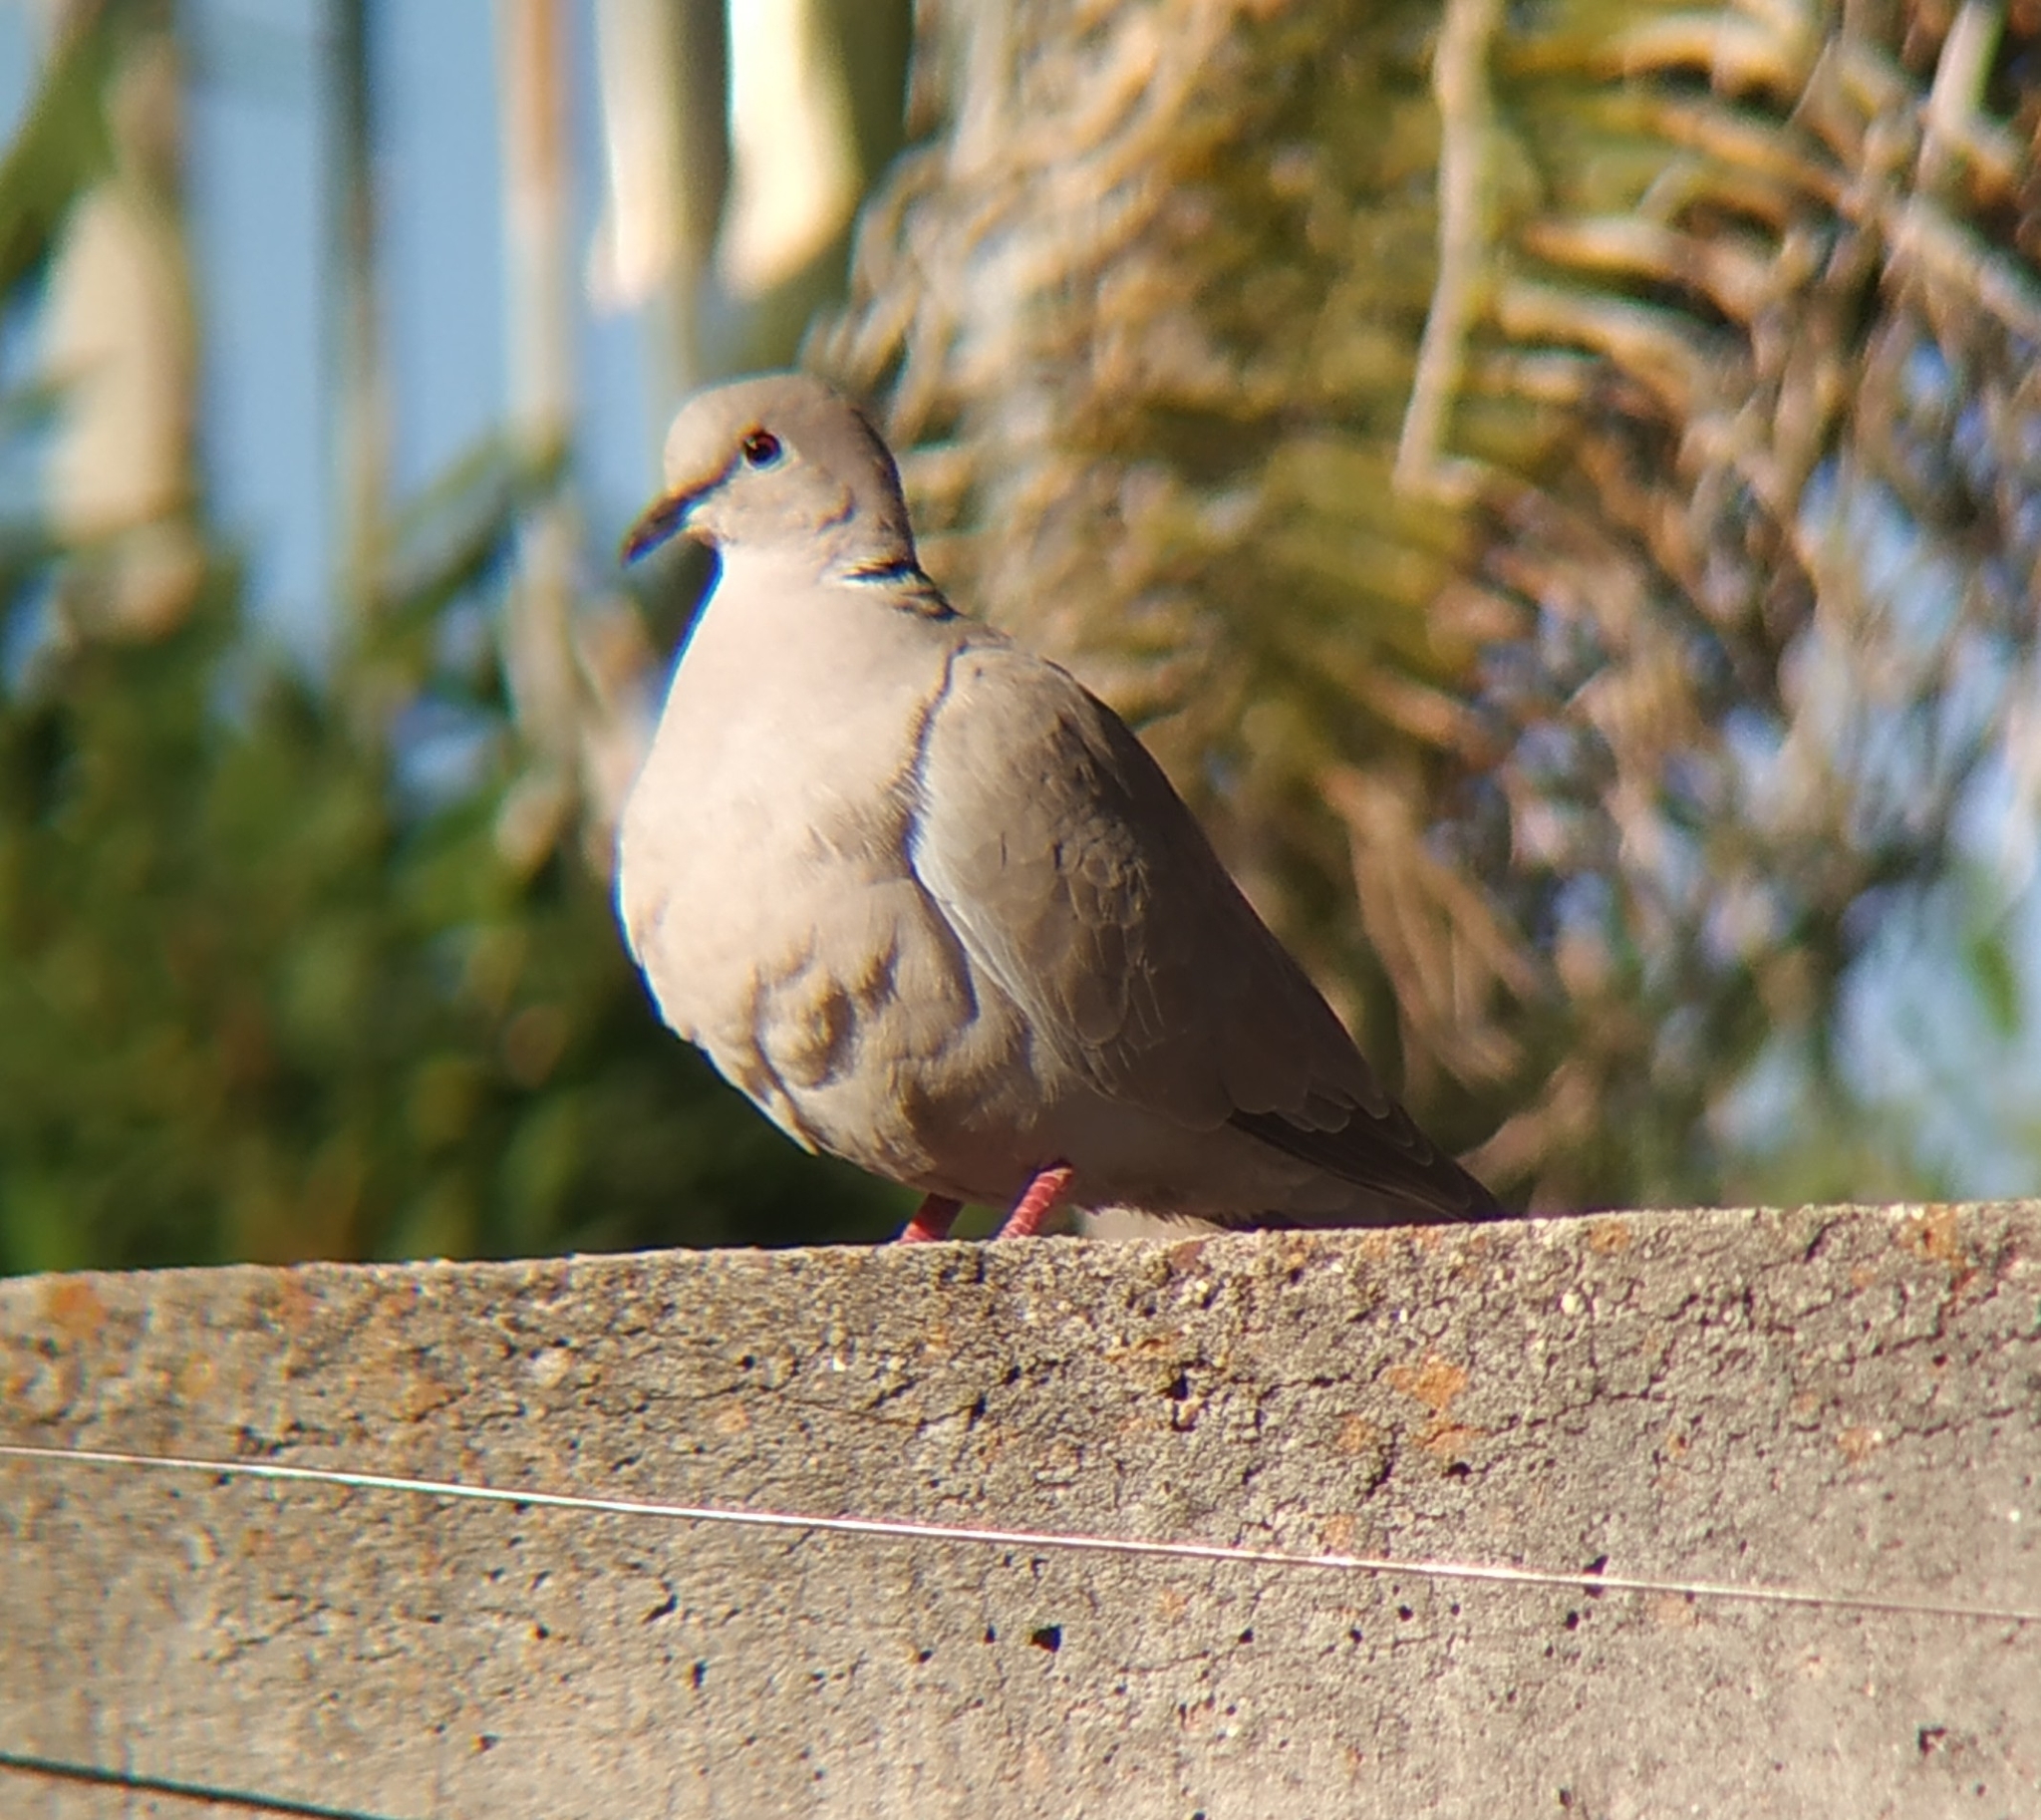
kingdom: Animalia
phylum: Chordata
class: Aves
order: Columbiformes
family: Columbidae
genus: Streptopelia
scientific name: Streptopelia decaocto
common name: Eurasian collared dove
